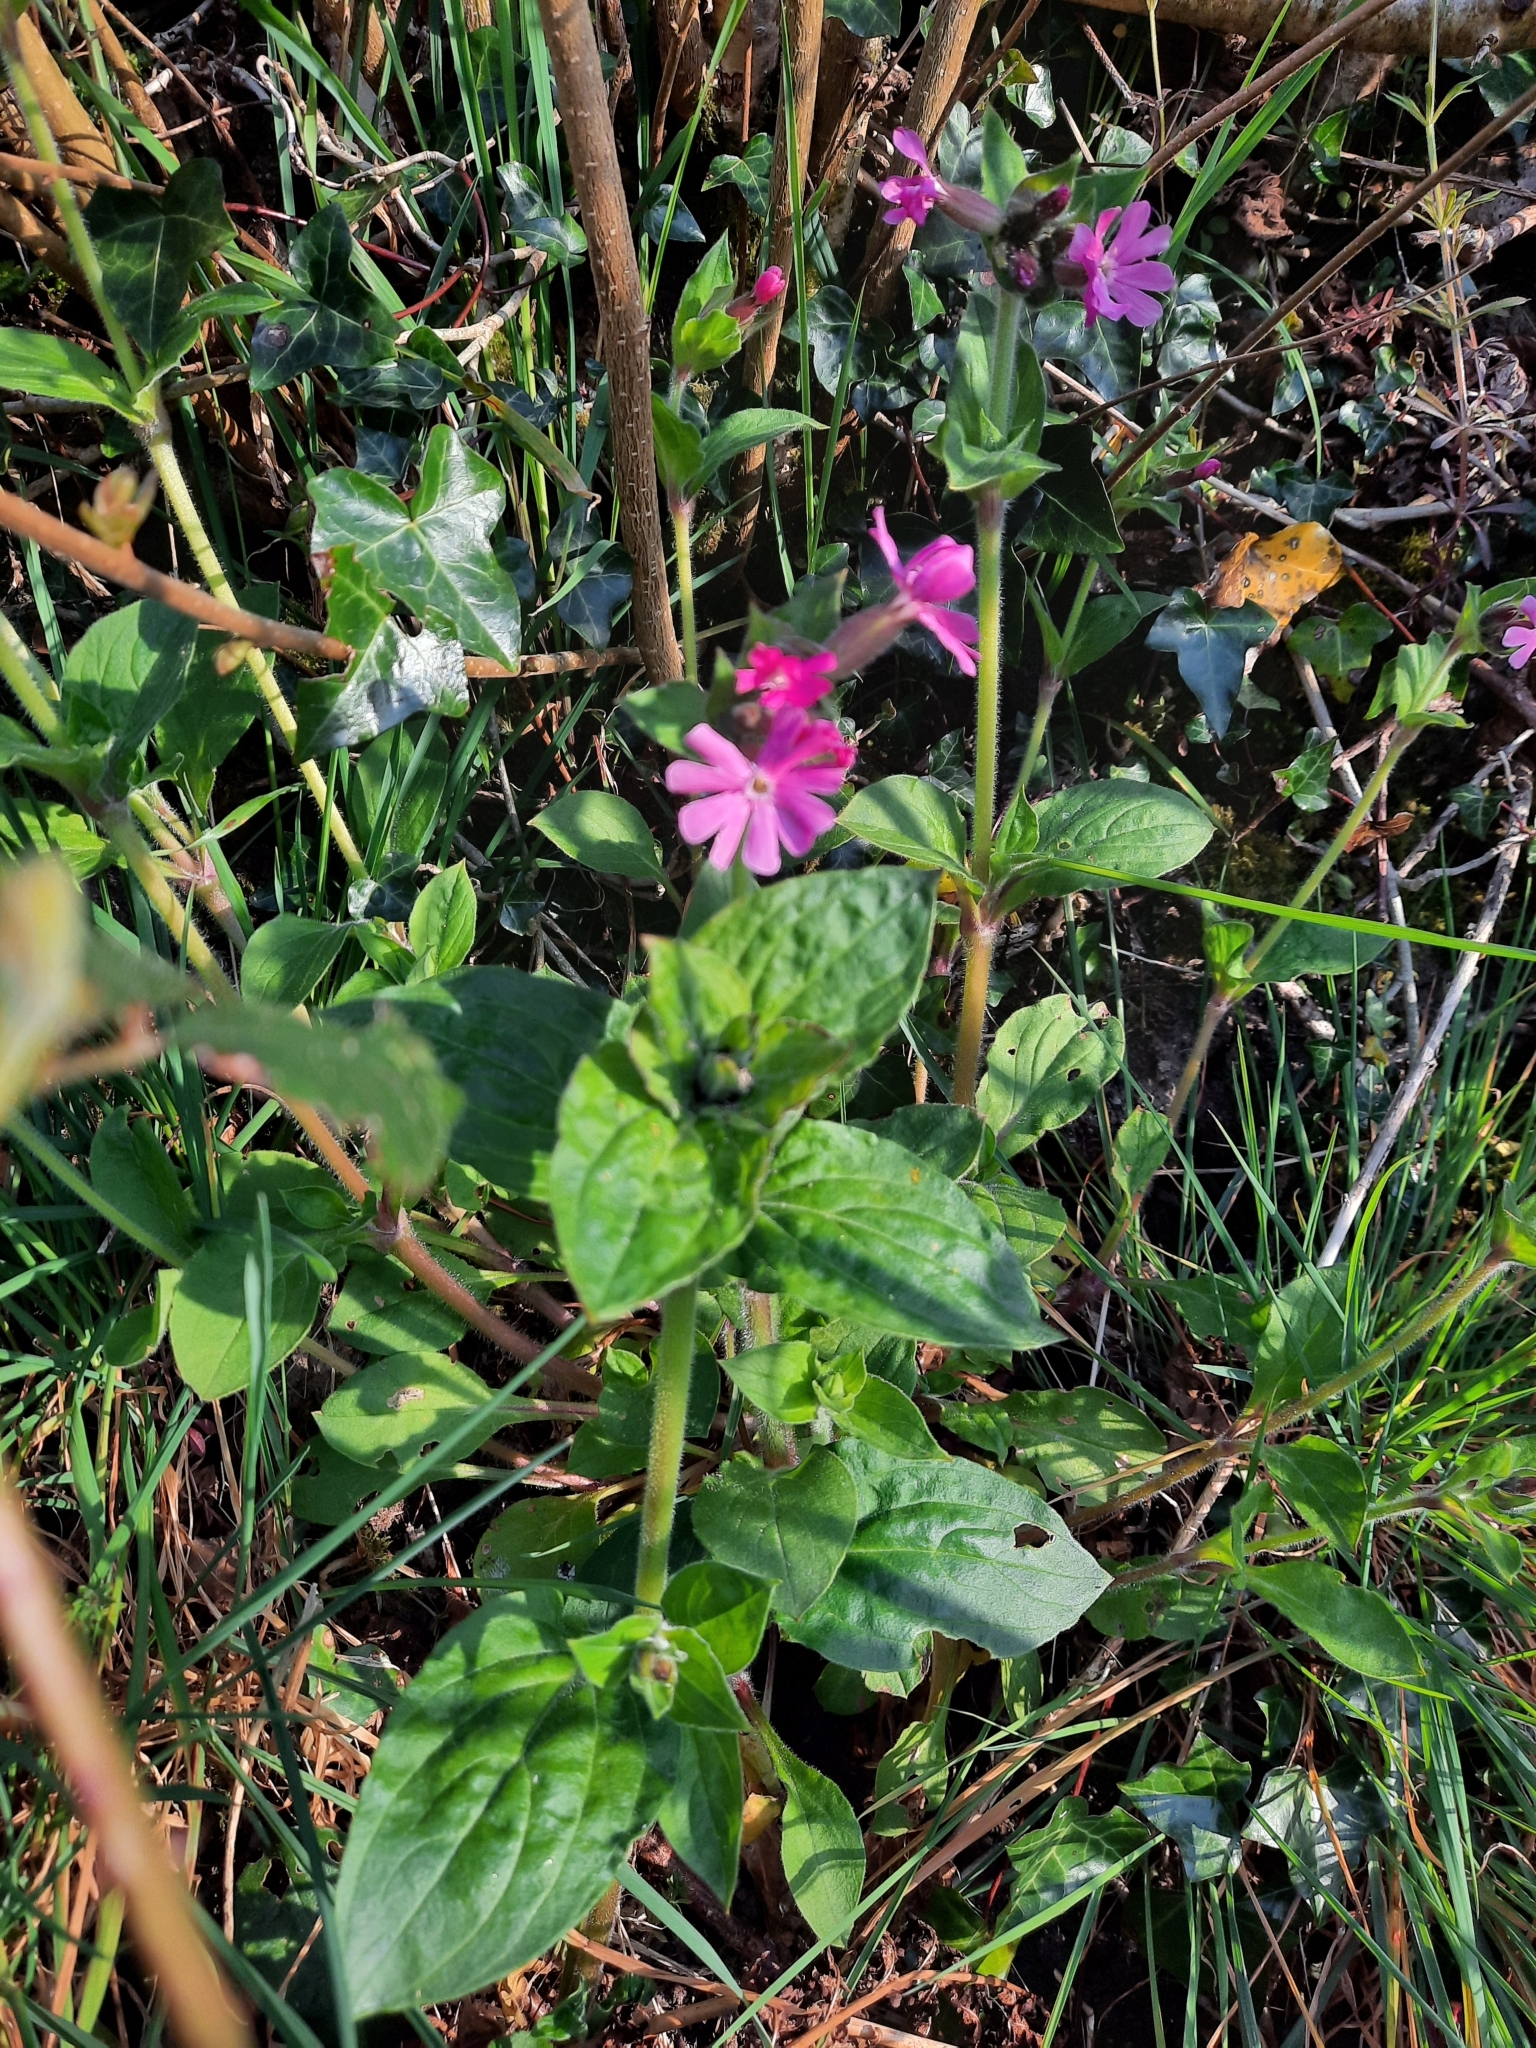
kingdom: Plantae
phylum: Tracheophyta
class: Magnoliopsida
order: Caryophyllales
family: Caryophyllaceae
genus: Silene
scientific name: Silene dioica
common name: Red campion
